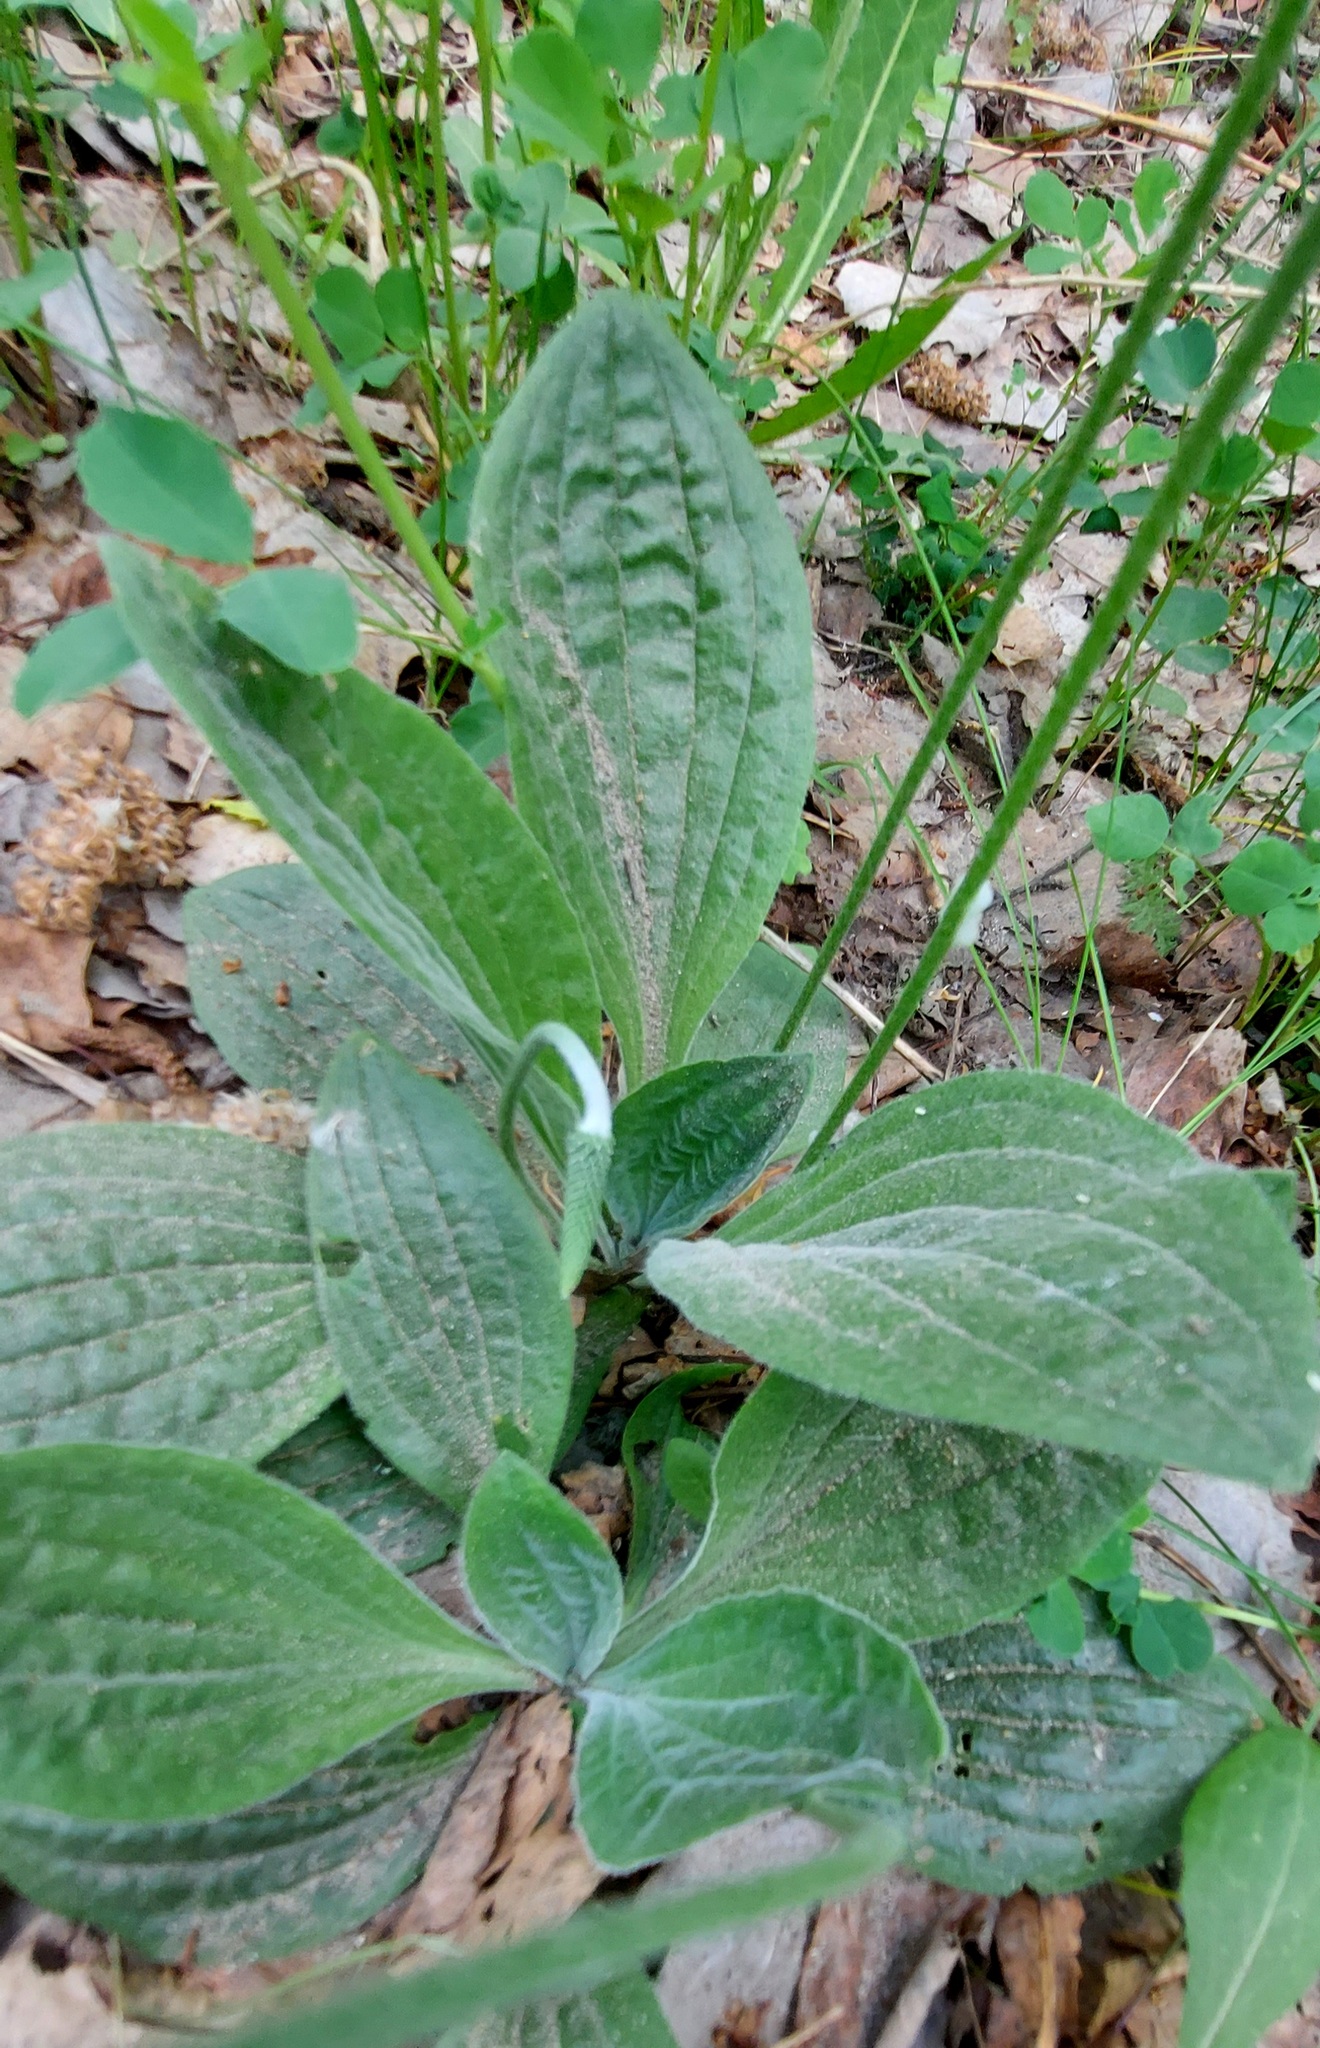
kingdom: Plantae
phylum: Tracheophyta
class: Magnoliopsida
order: Lamiales
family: Plantaginaceae
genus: Plantago
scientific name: Plantago media
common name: Hoary plantain
